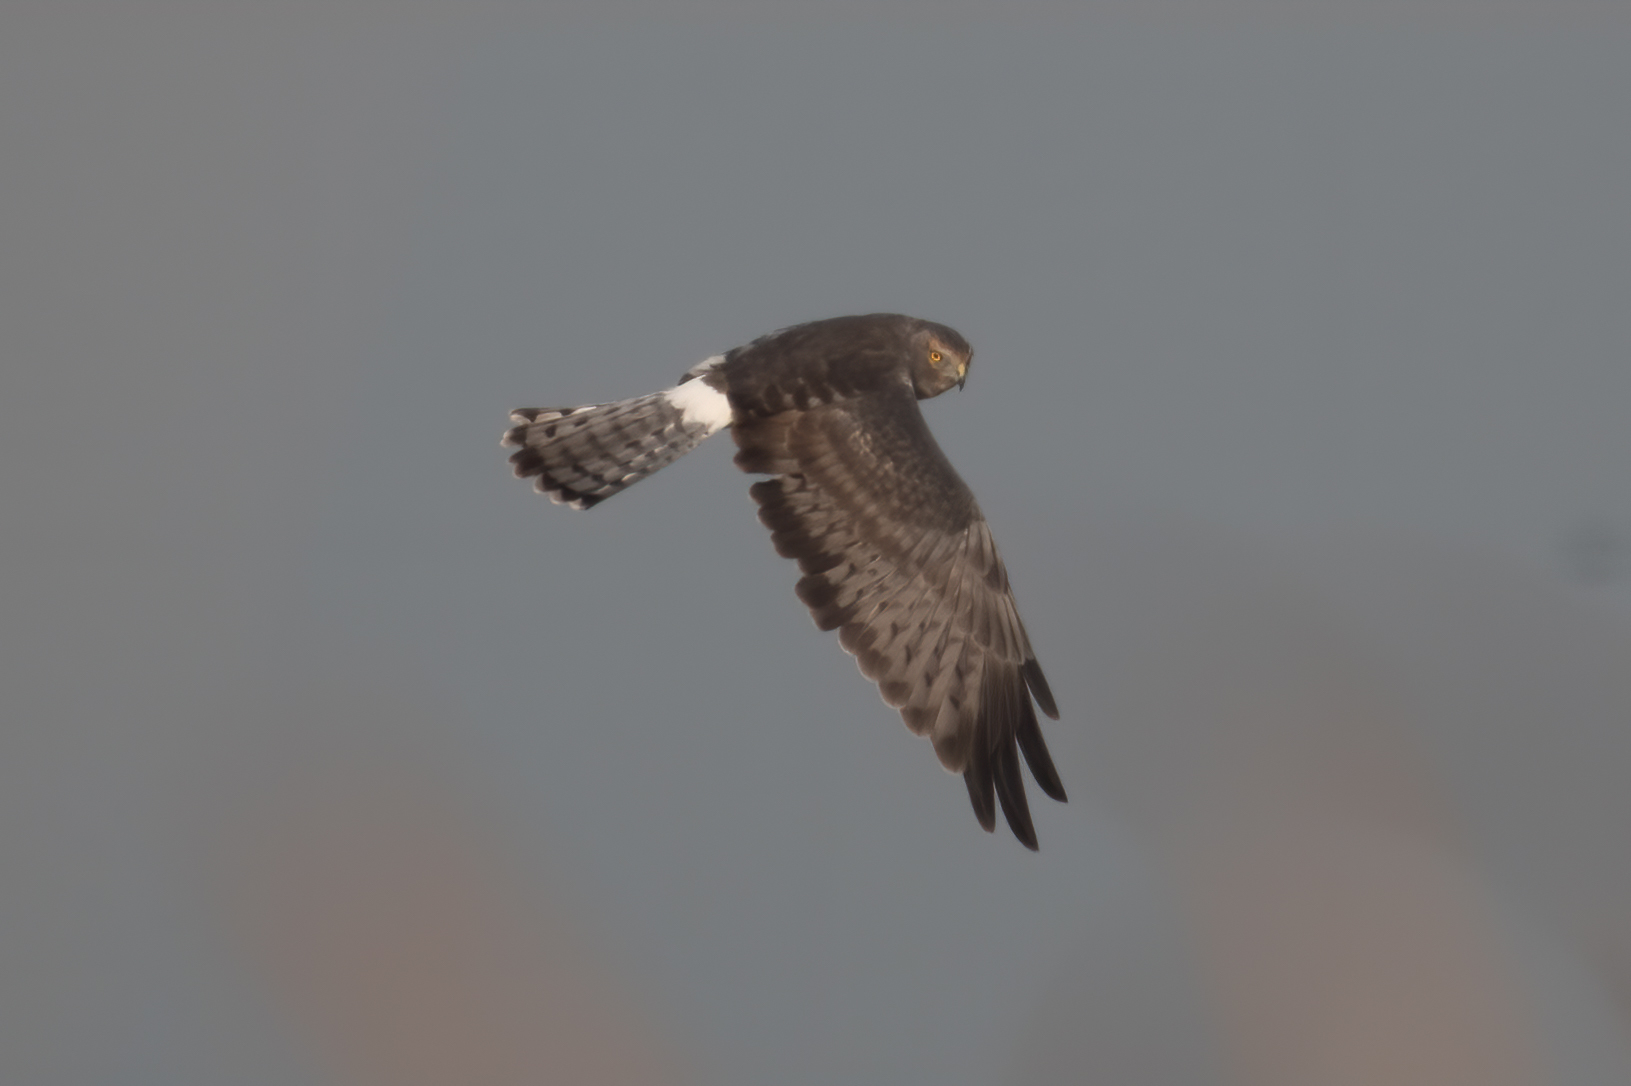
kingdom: Animalia
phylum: Chordata
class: Aves
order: Accipitriformes
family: Accipitridae
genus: Circus
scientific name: Circus cyaneus
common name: Hen harrier
